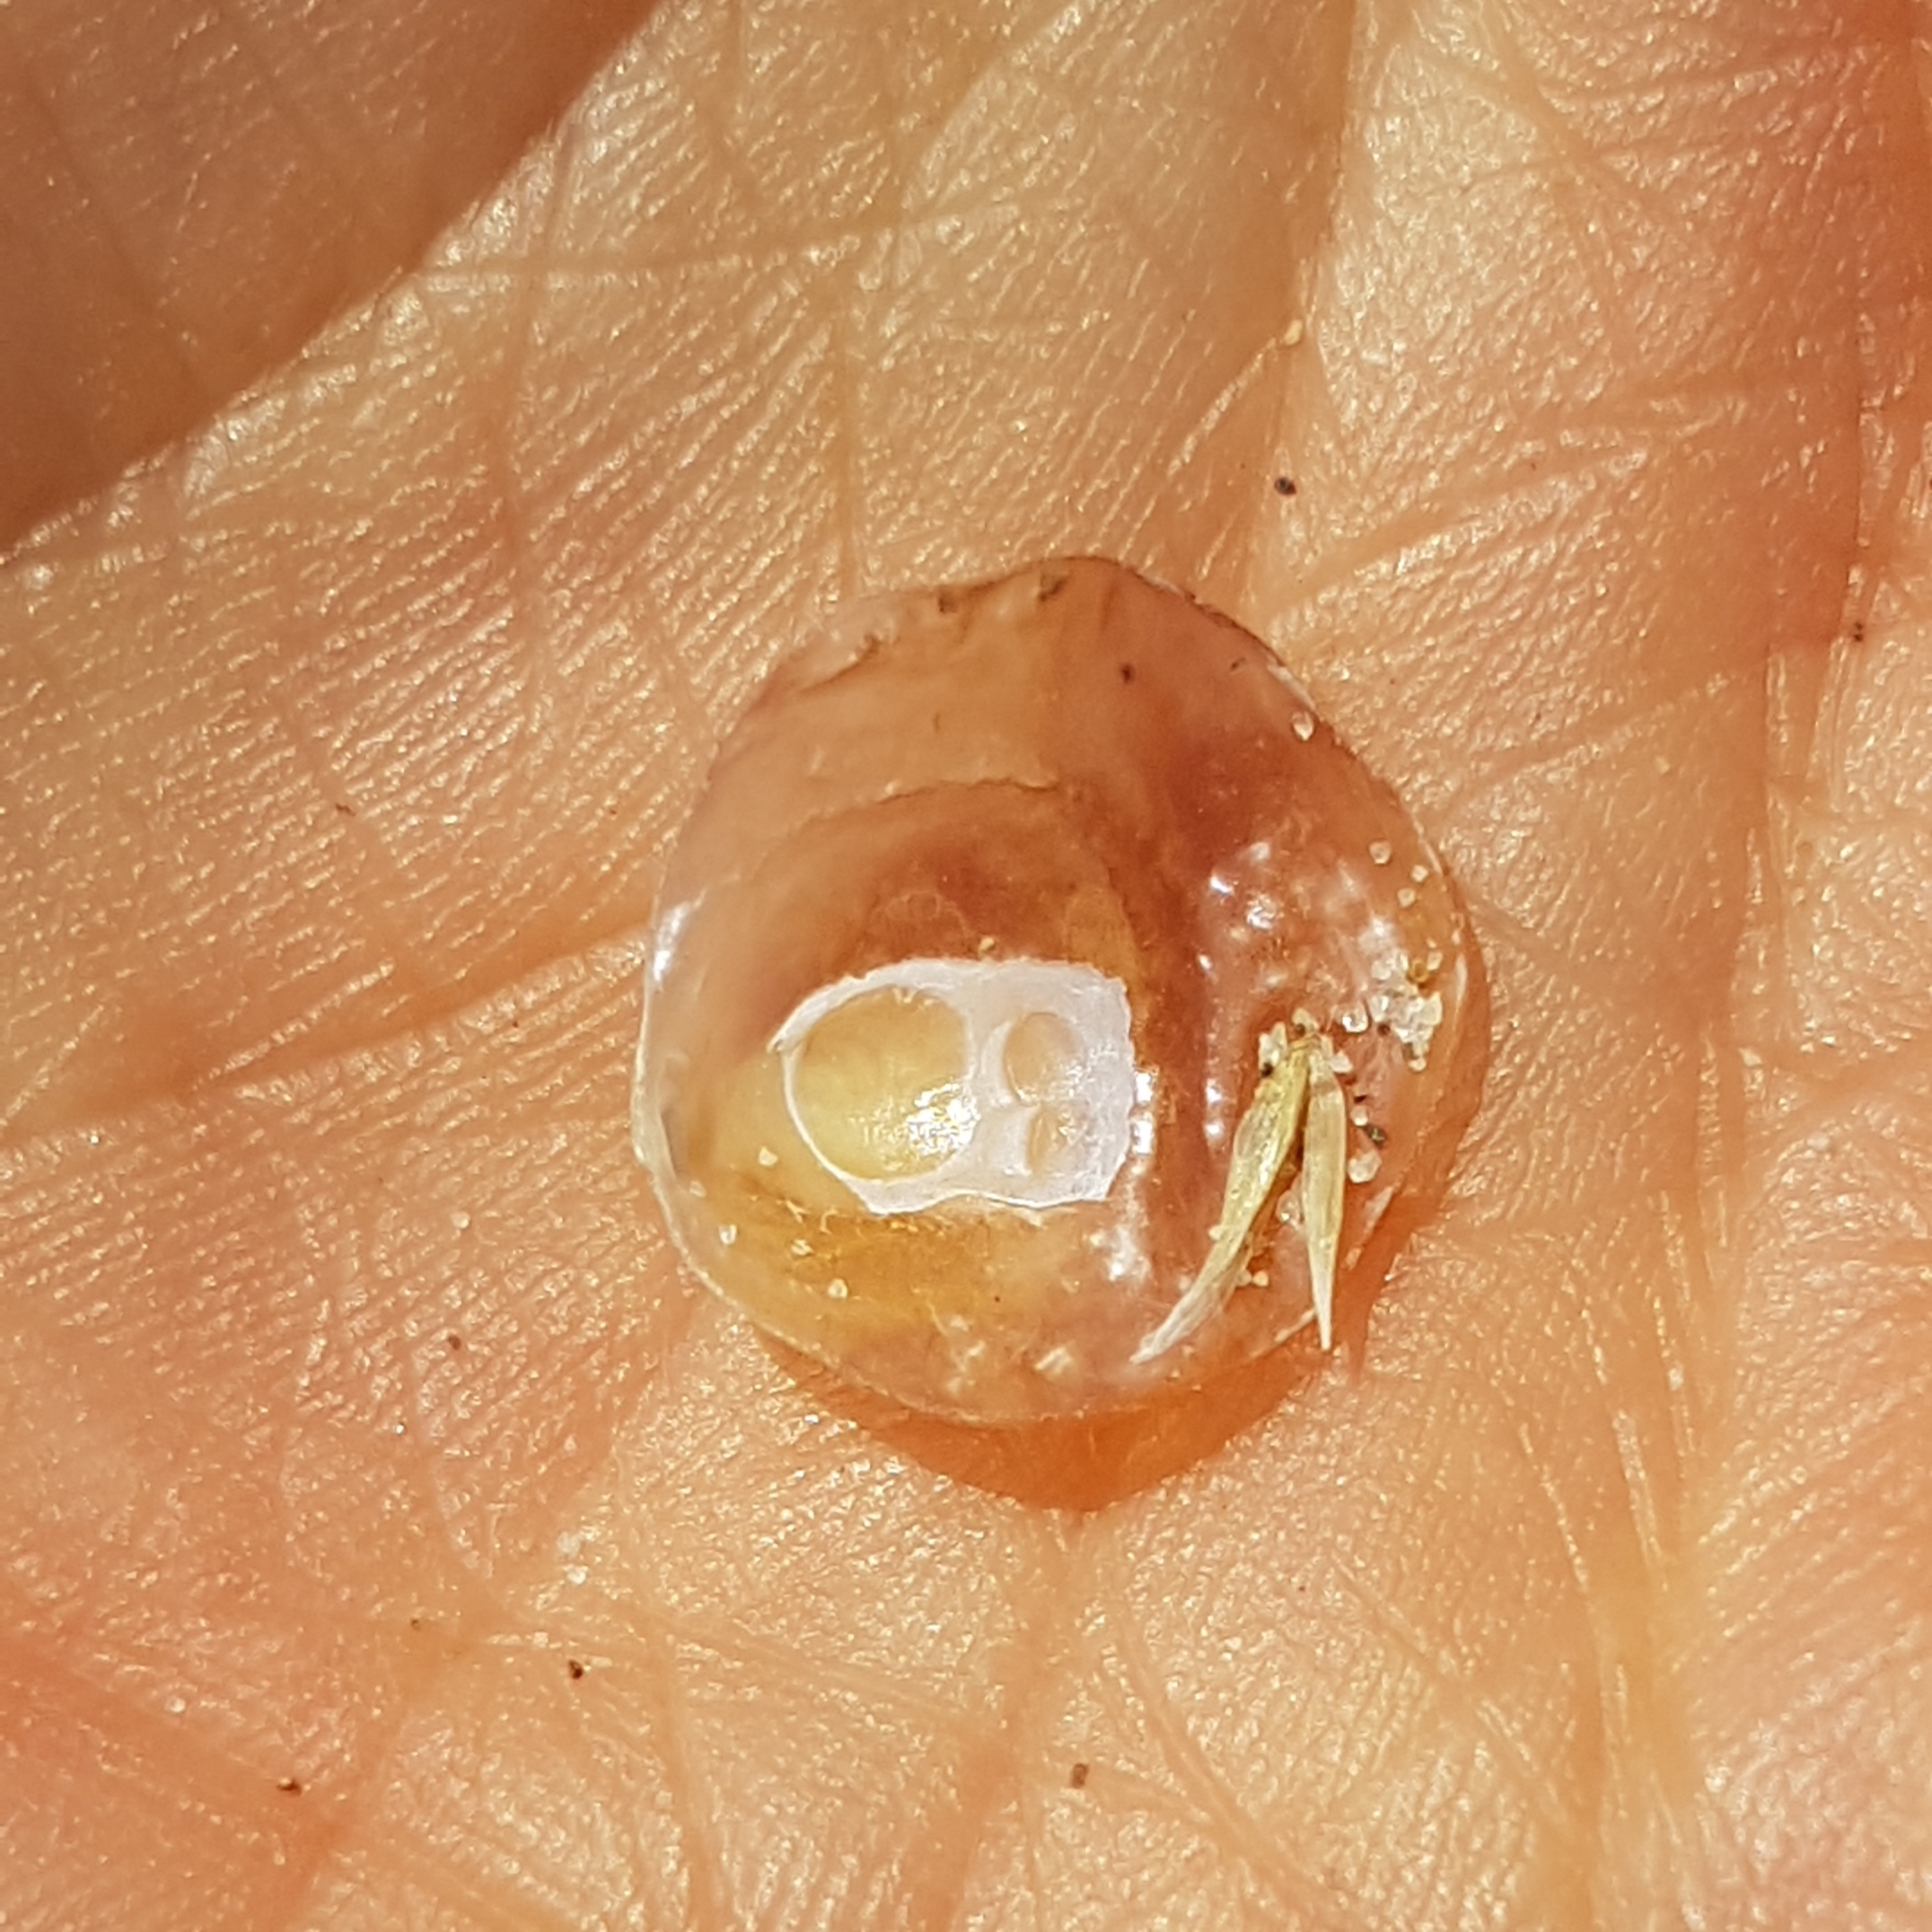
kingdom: Animalia
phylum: Mollusca
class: Bivalvia
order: Pectinida
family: Anomiidae
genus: Anomia
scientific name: Anomia ephippium
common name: Saddle oyster
